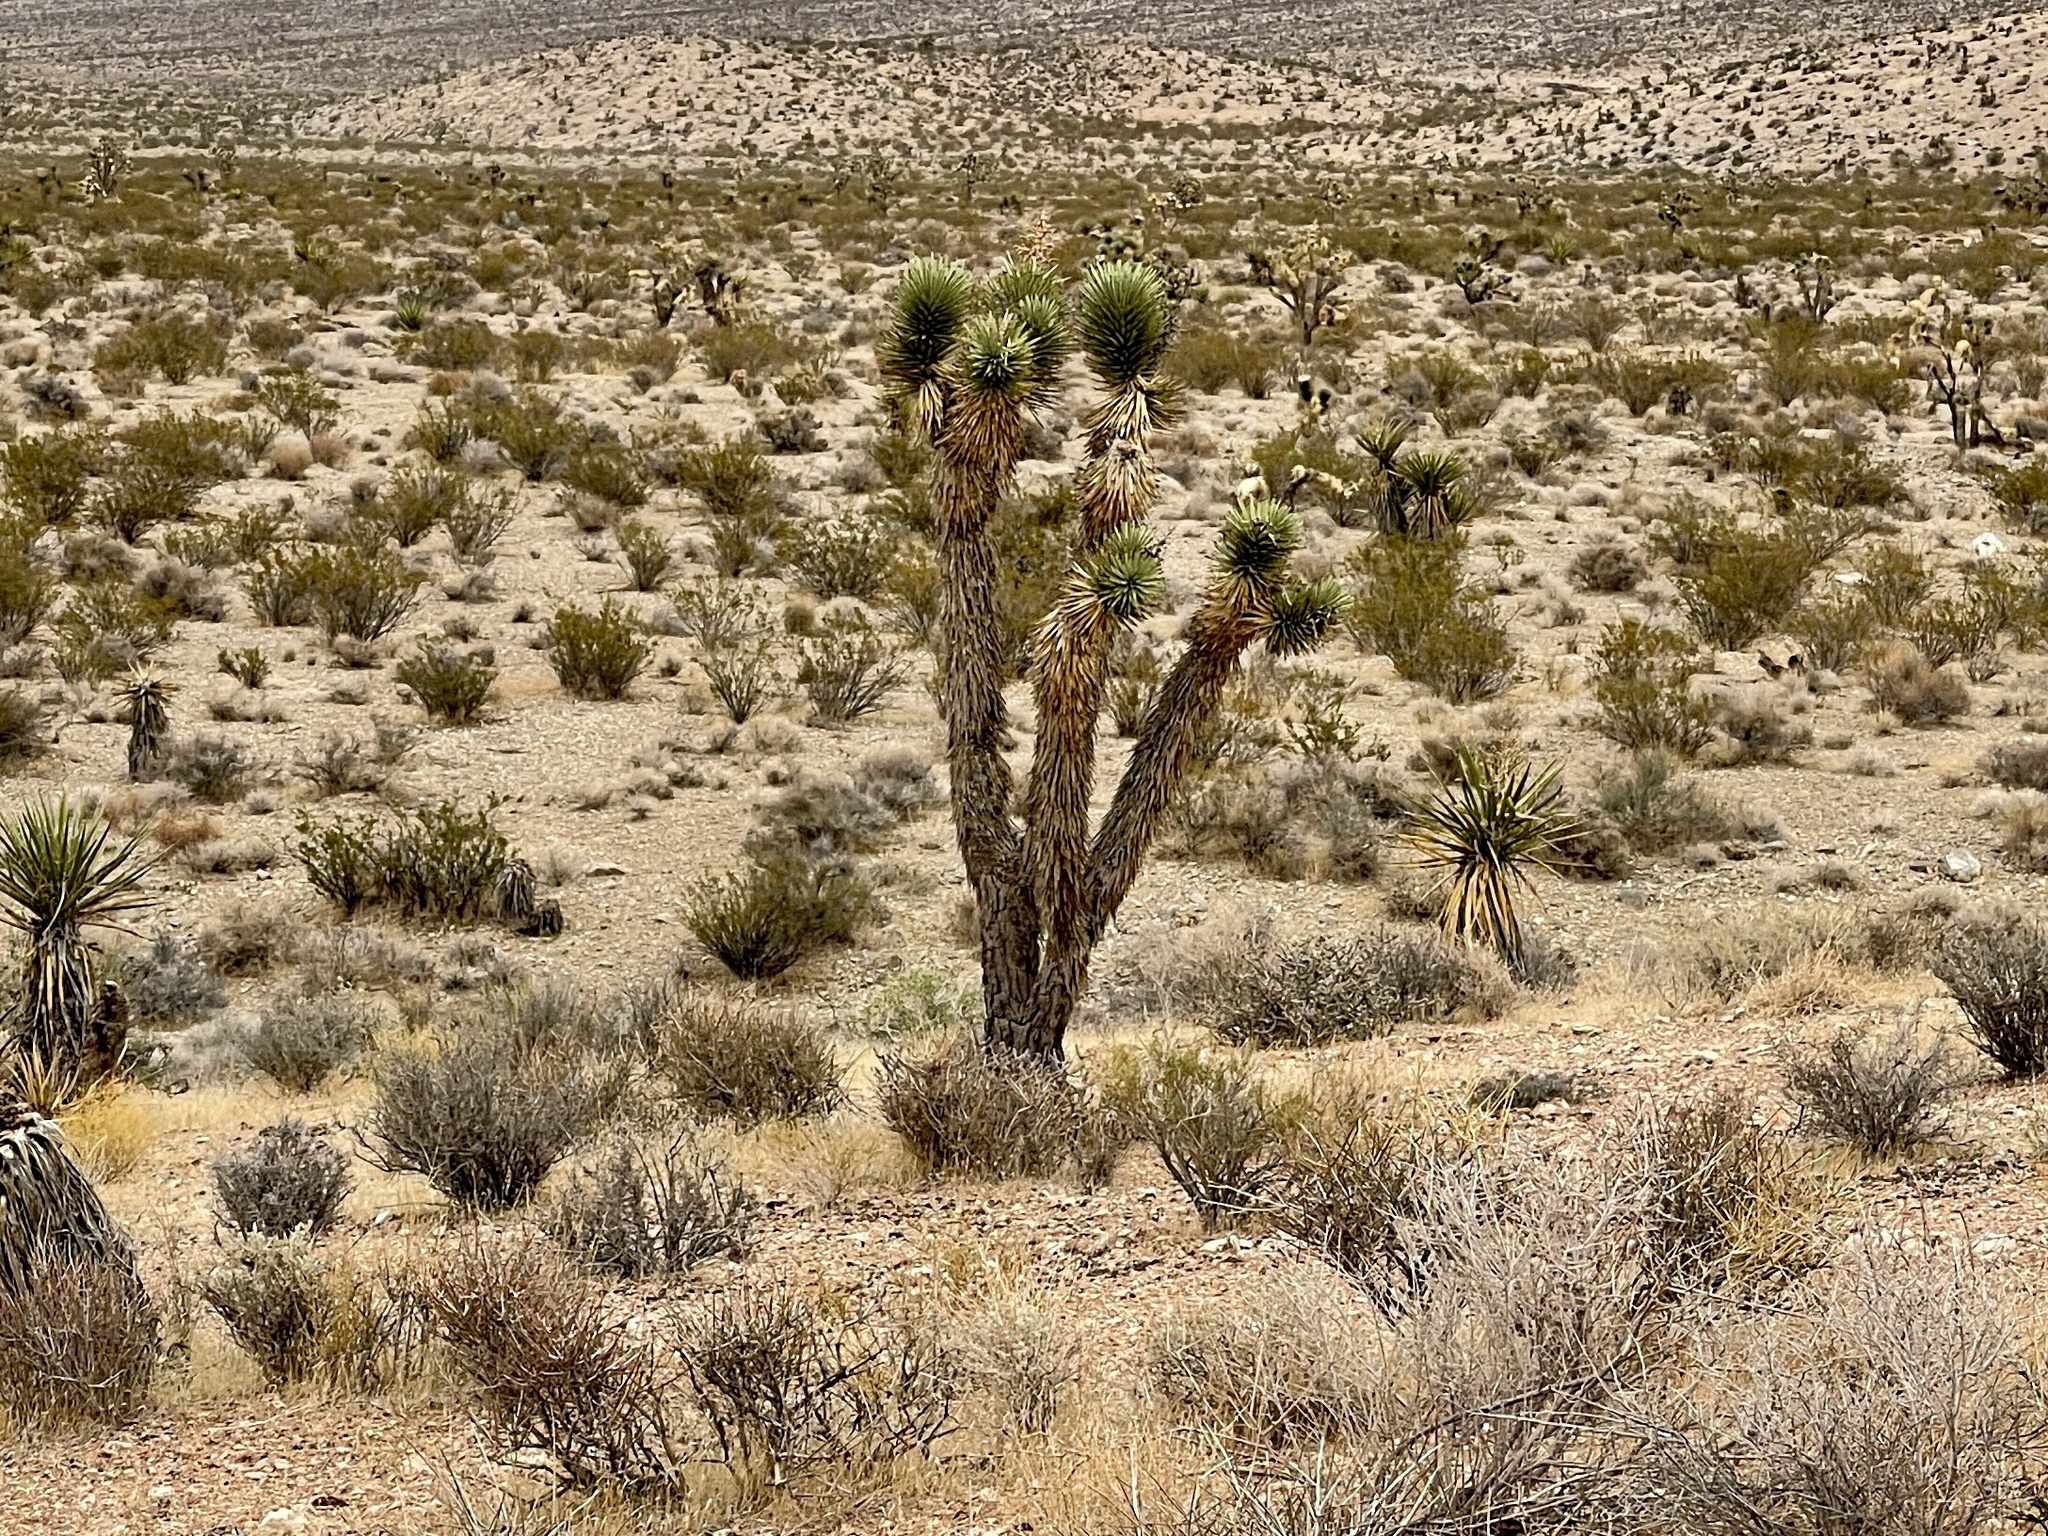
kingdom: Plantae
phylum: Tracheophyta
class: Liliopsida
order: Asparagales
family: Asparagaceae
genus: Yucca
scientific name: Yucca brevifolia
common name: Joshua tree
